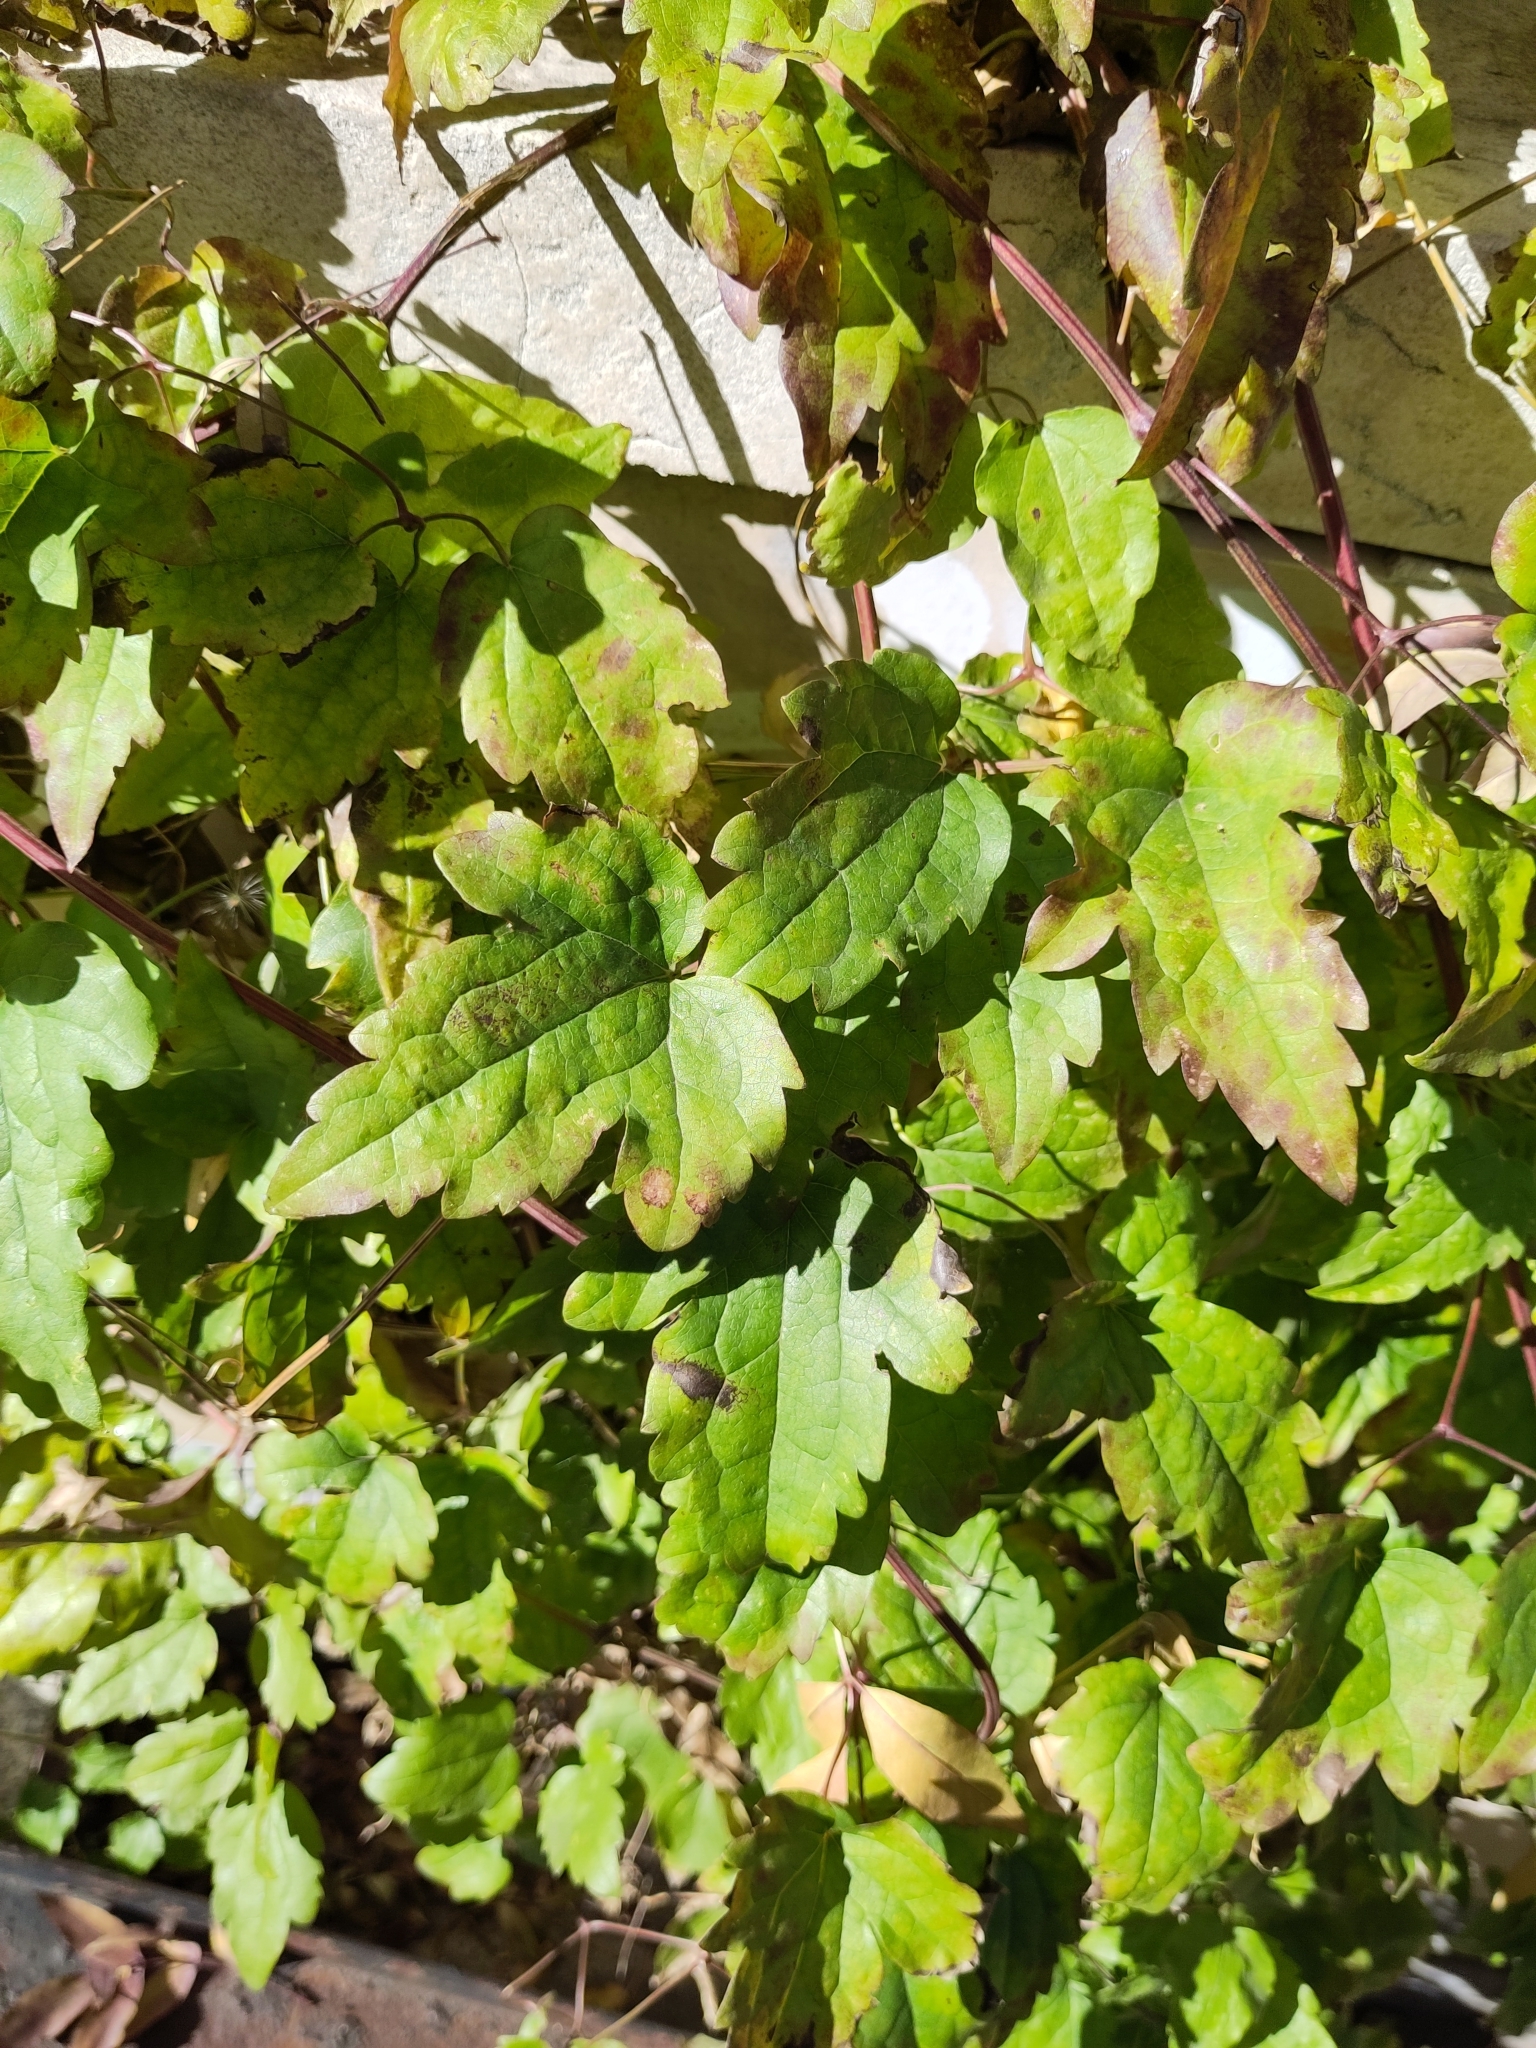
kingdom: Plantae
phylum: Tracheophyta
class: Magnoliopsida
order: Ranunculales
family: Ranunculaceae
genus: Clematis
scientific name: Clematis vitalba
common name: Evergreen clematis
